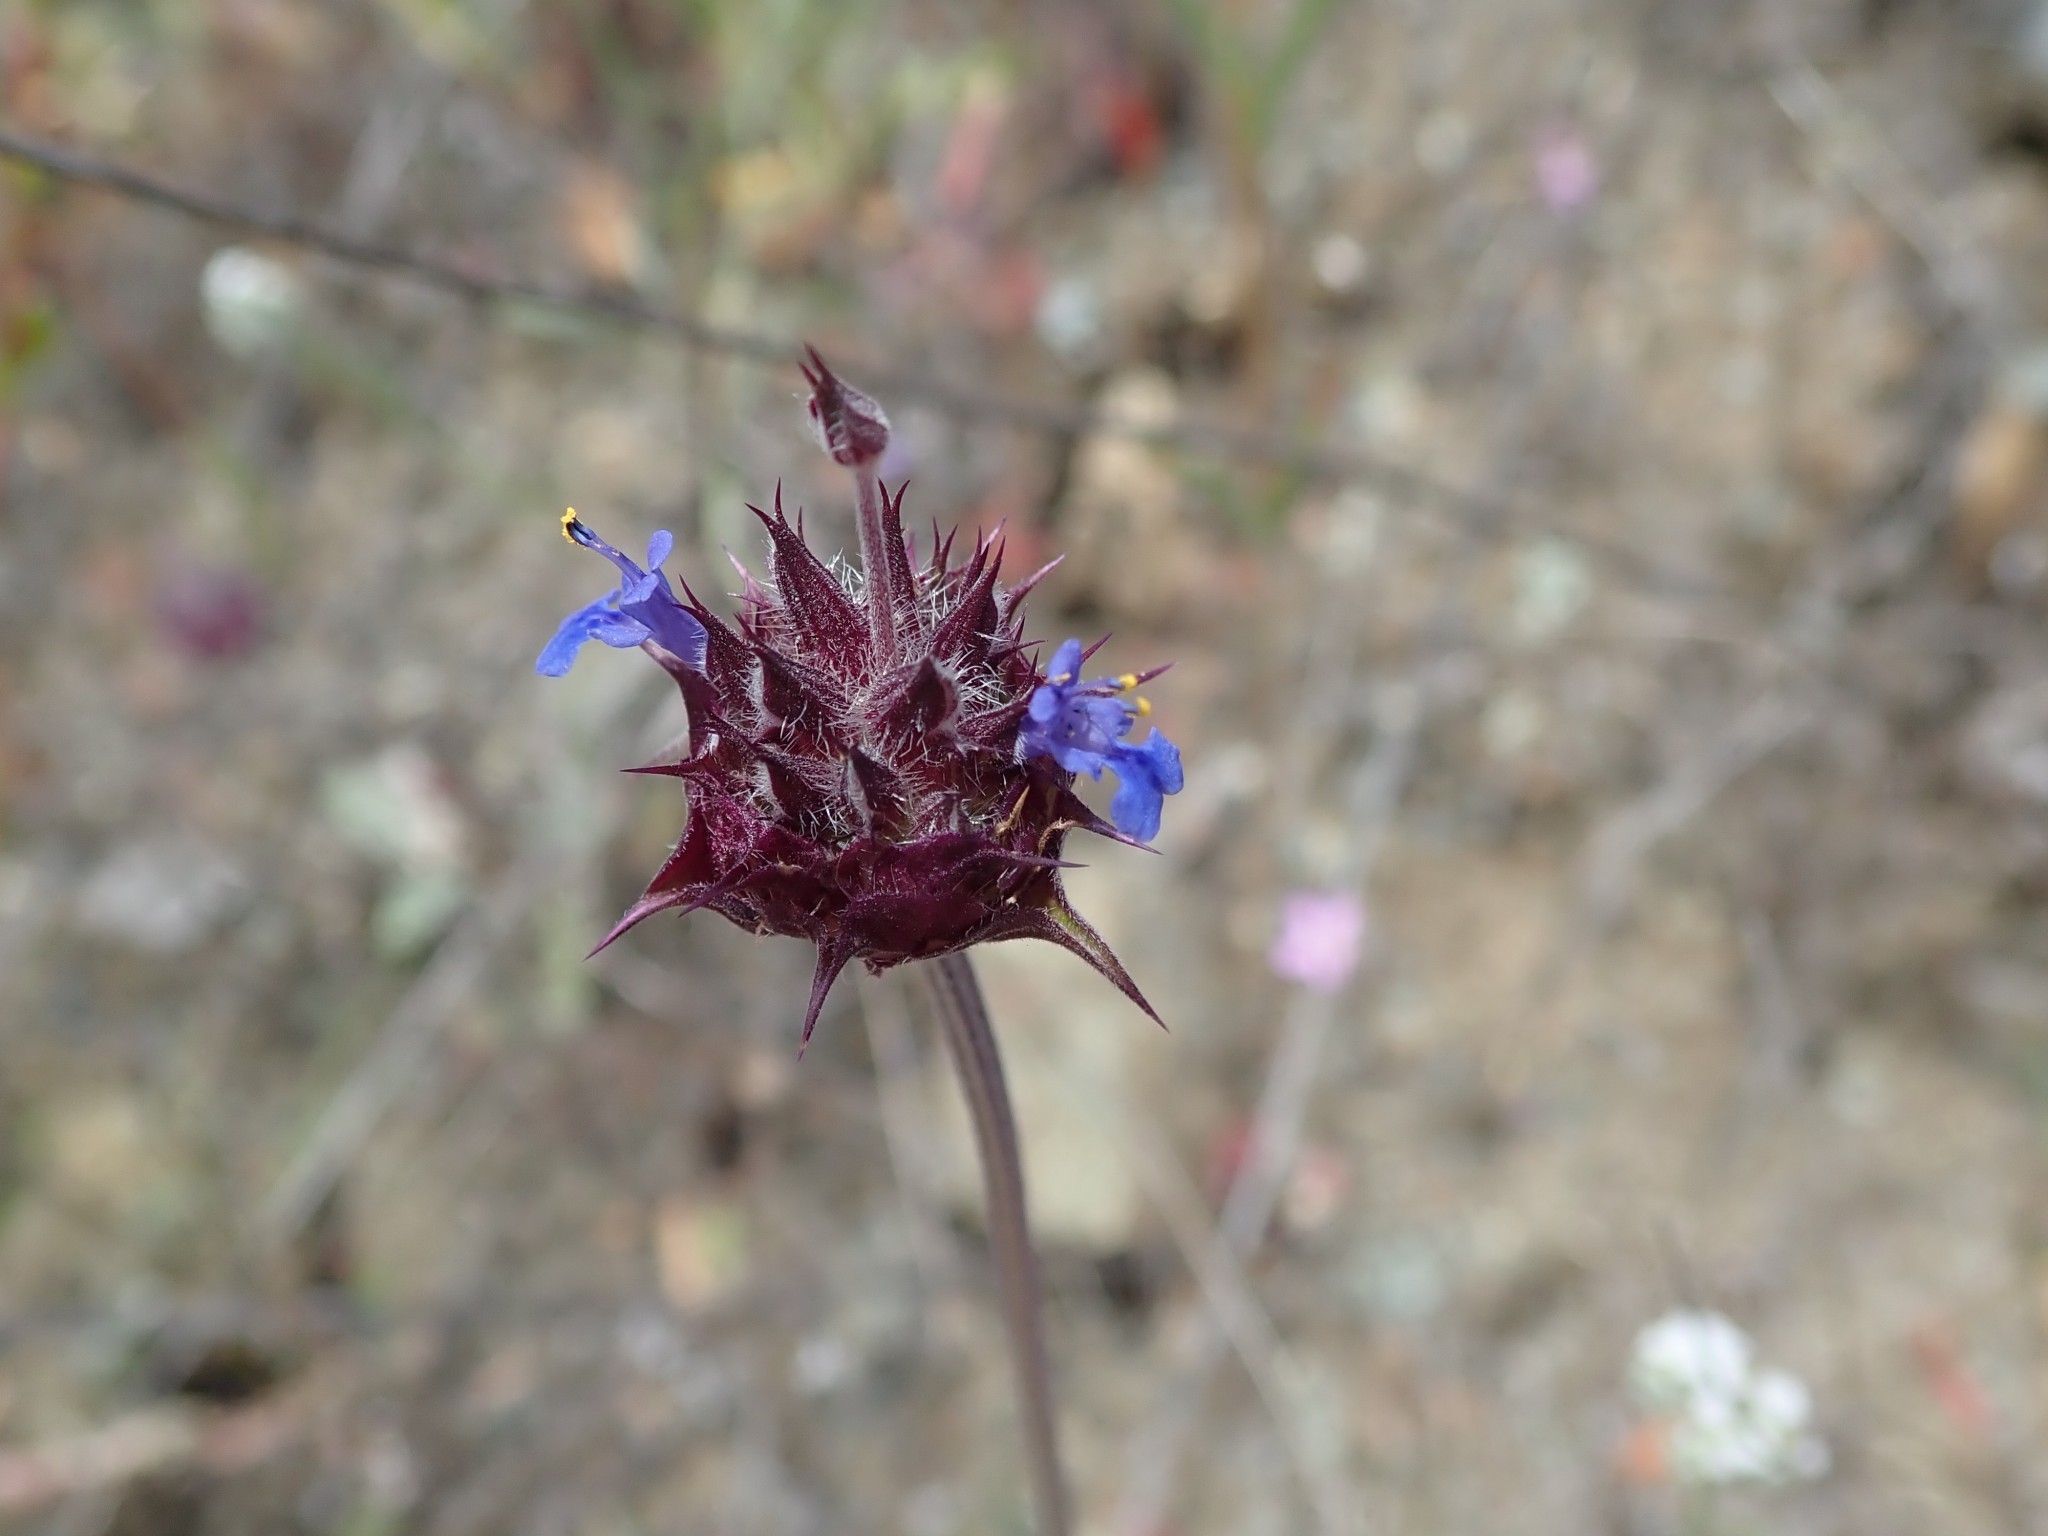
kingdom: Plantae
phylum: Tracheophyta
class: Magnoliopsida
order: Lamiales
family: Lamiaceae
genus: Salvia
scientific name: Salvia columbariae
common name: Chia
